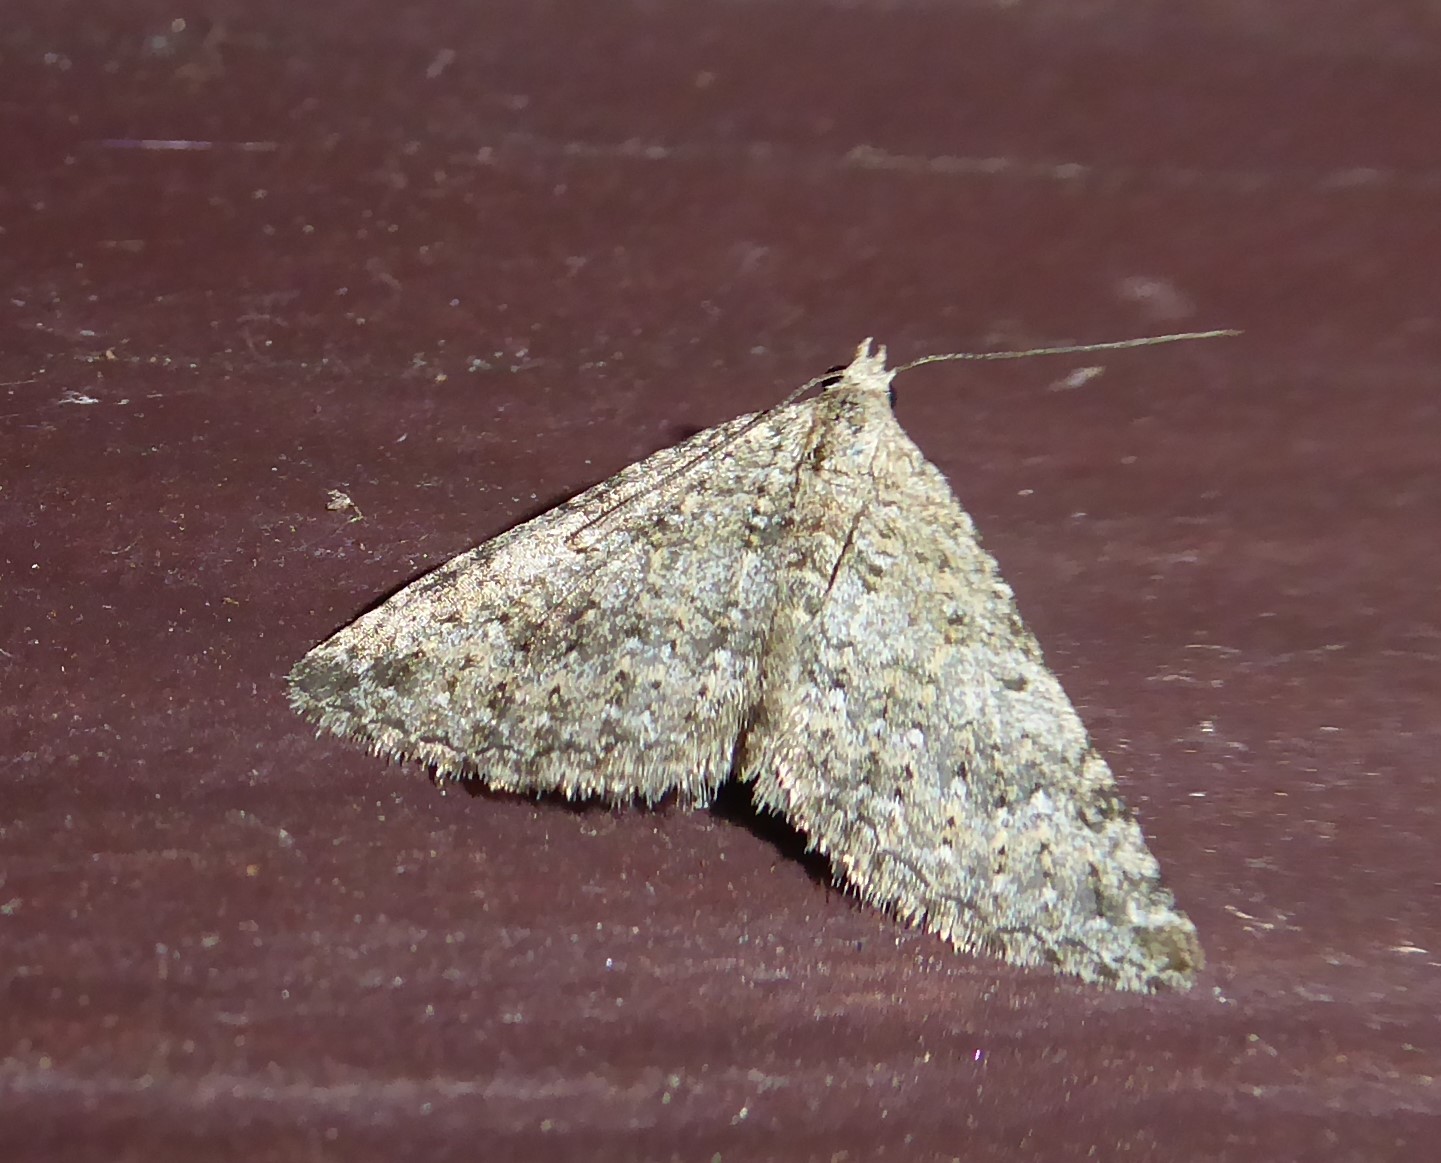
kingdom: Animalia
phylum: Arthropoda
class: Insecta
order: Lepidoptera
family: Geometridae
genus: Helastia
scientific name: Helastia corcularia
